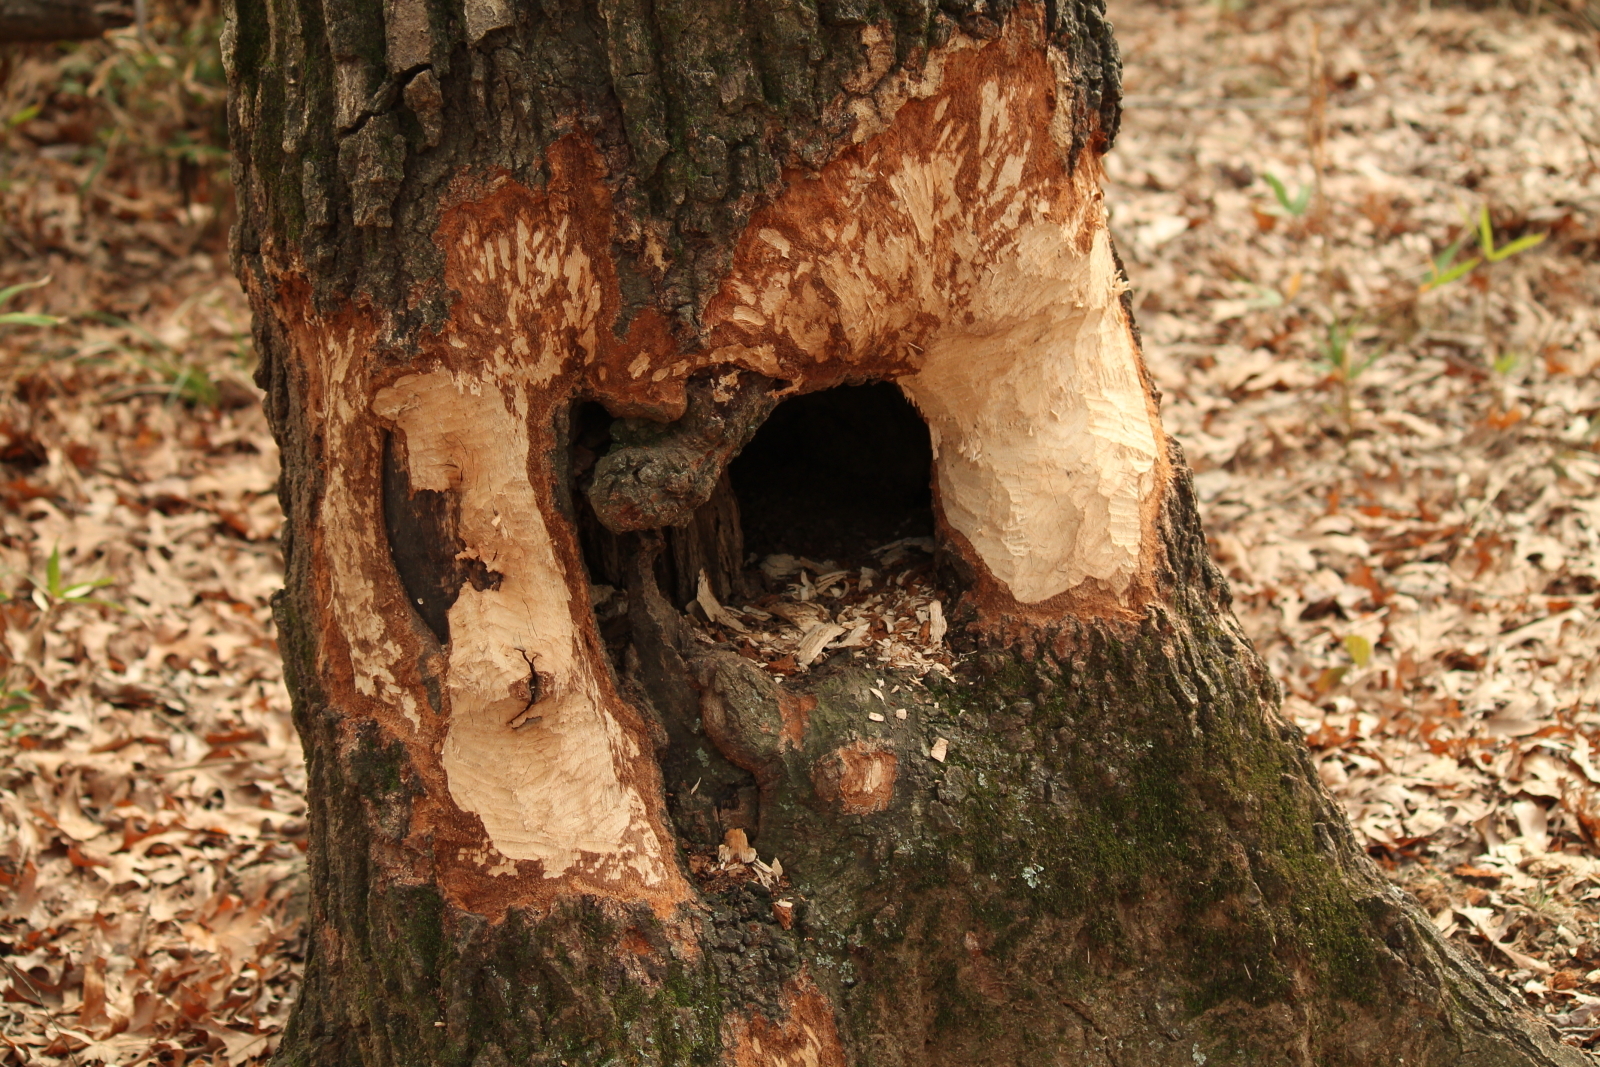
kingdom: Animalia
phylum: Chordata
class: Mammalia
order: Rodentia
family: Castoridae
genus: Castor
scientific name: Castor canadensis
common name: American beaver
